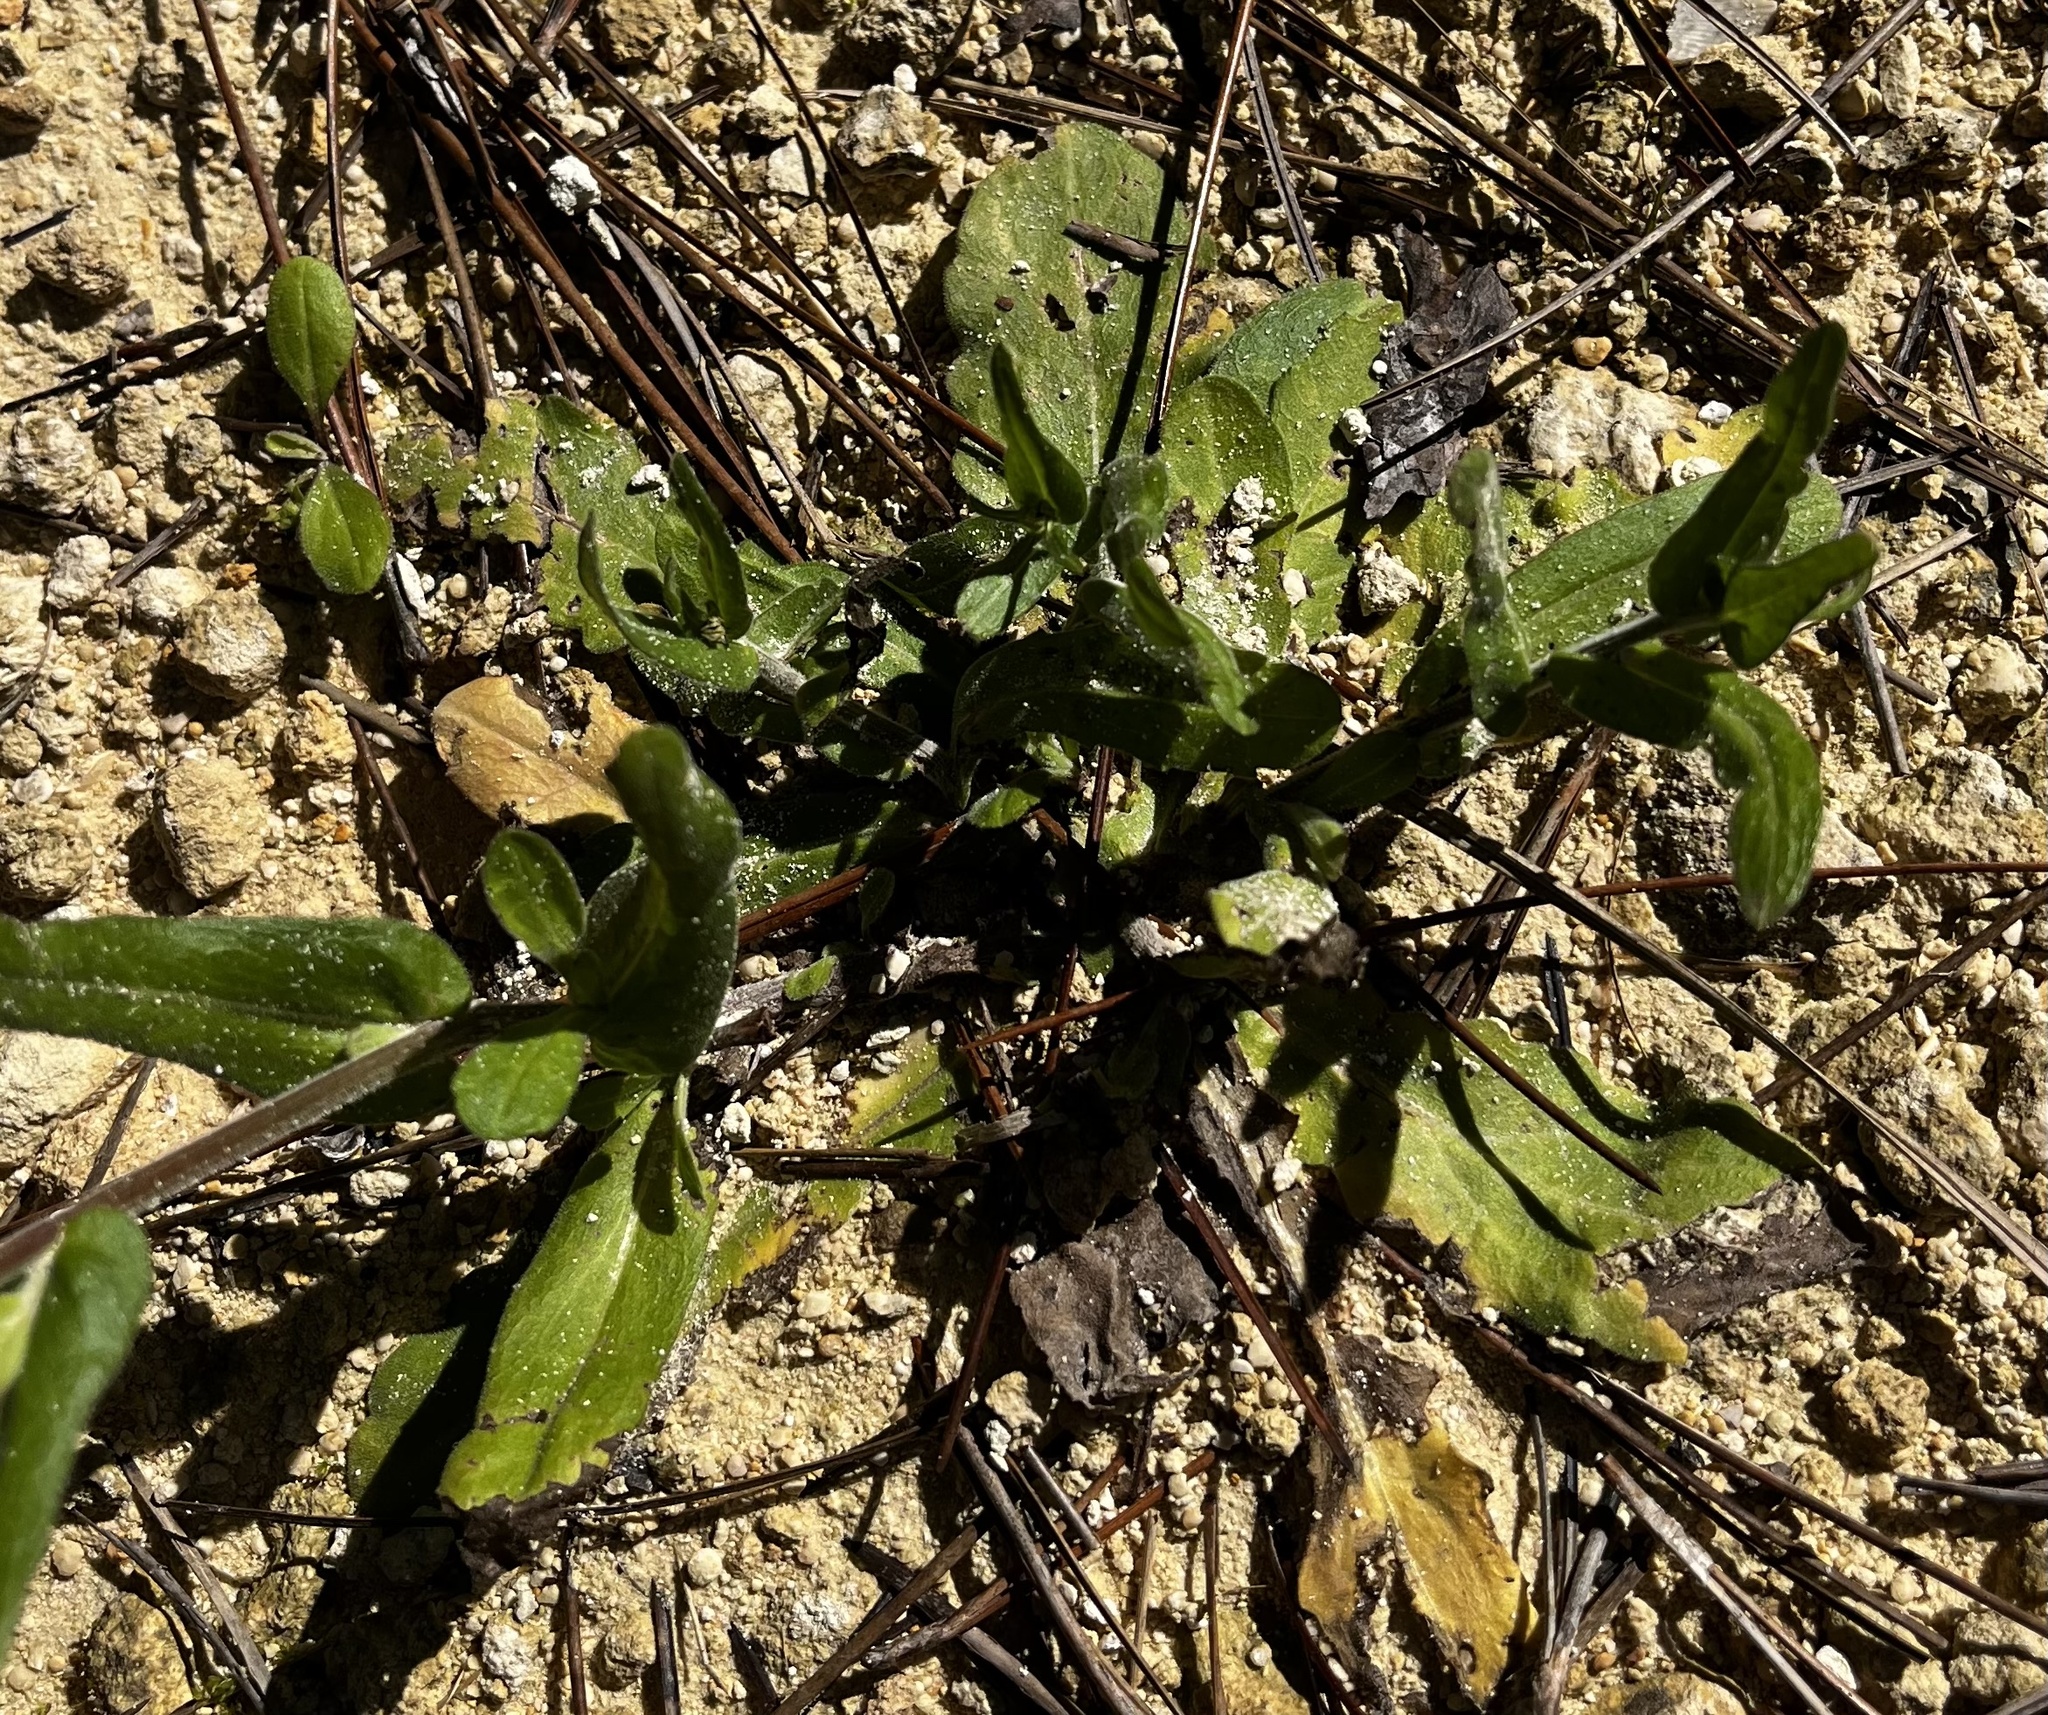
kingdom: Plantae
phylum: Tracheophyta
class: Magnoliopsida
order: Asterales
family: Asteraceae
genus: Erigeron
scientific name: Erigeron quercifolius
